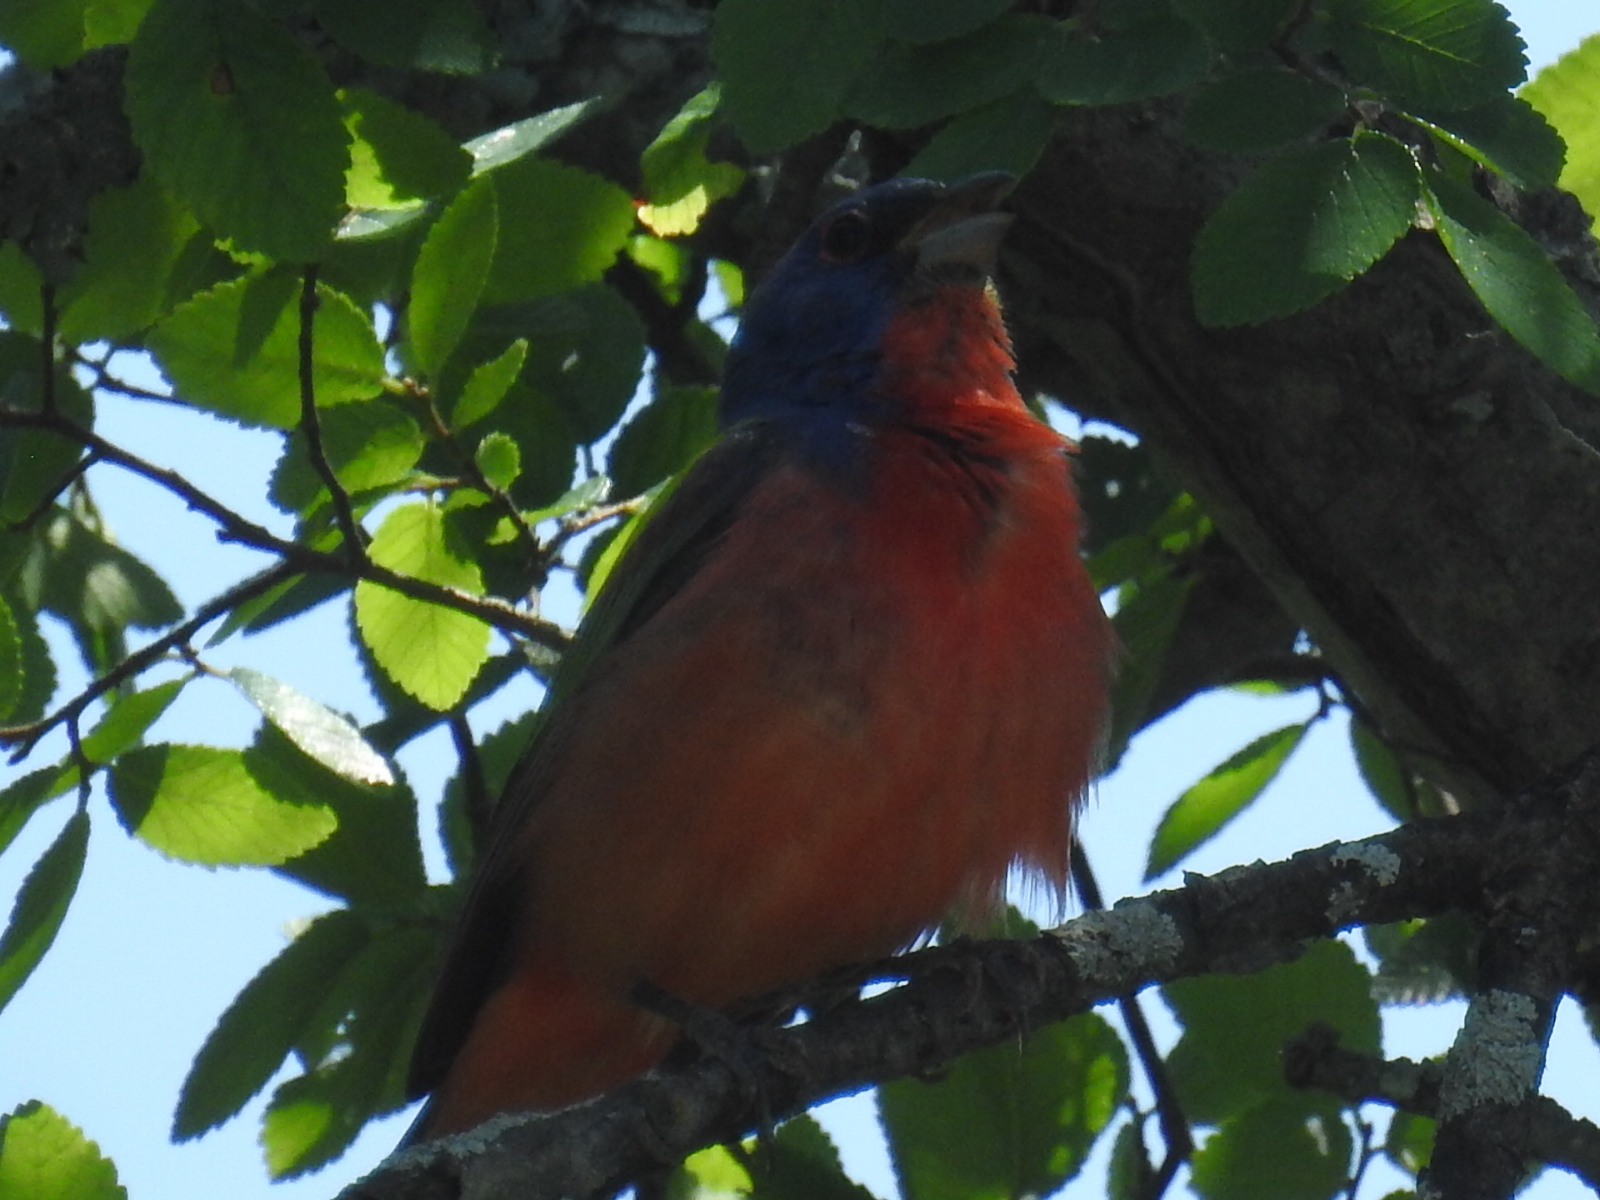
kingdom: Animalia
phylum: Chordata
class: Aves
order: Passeriformes
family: Cardinalidae
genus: Passerina
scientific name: Passerina ciris
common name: Painted bunting
